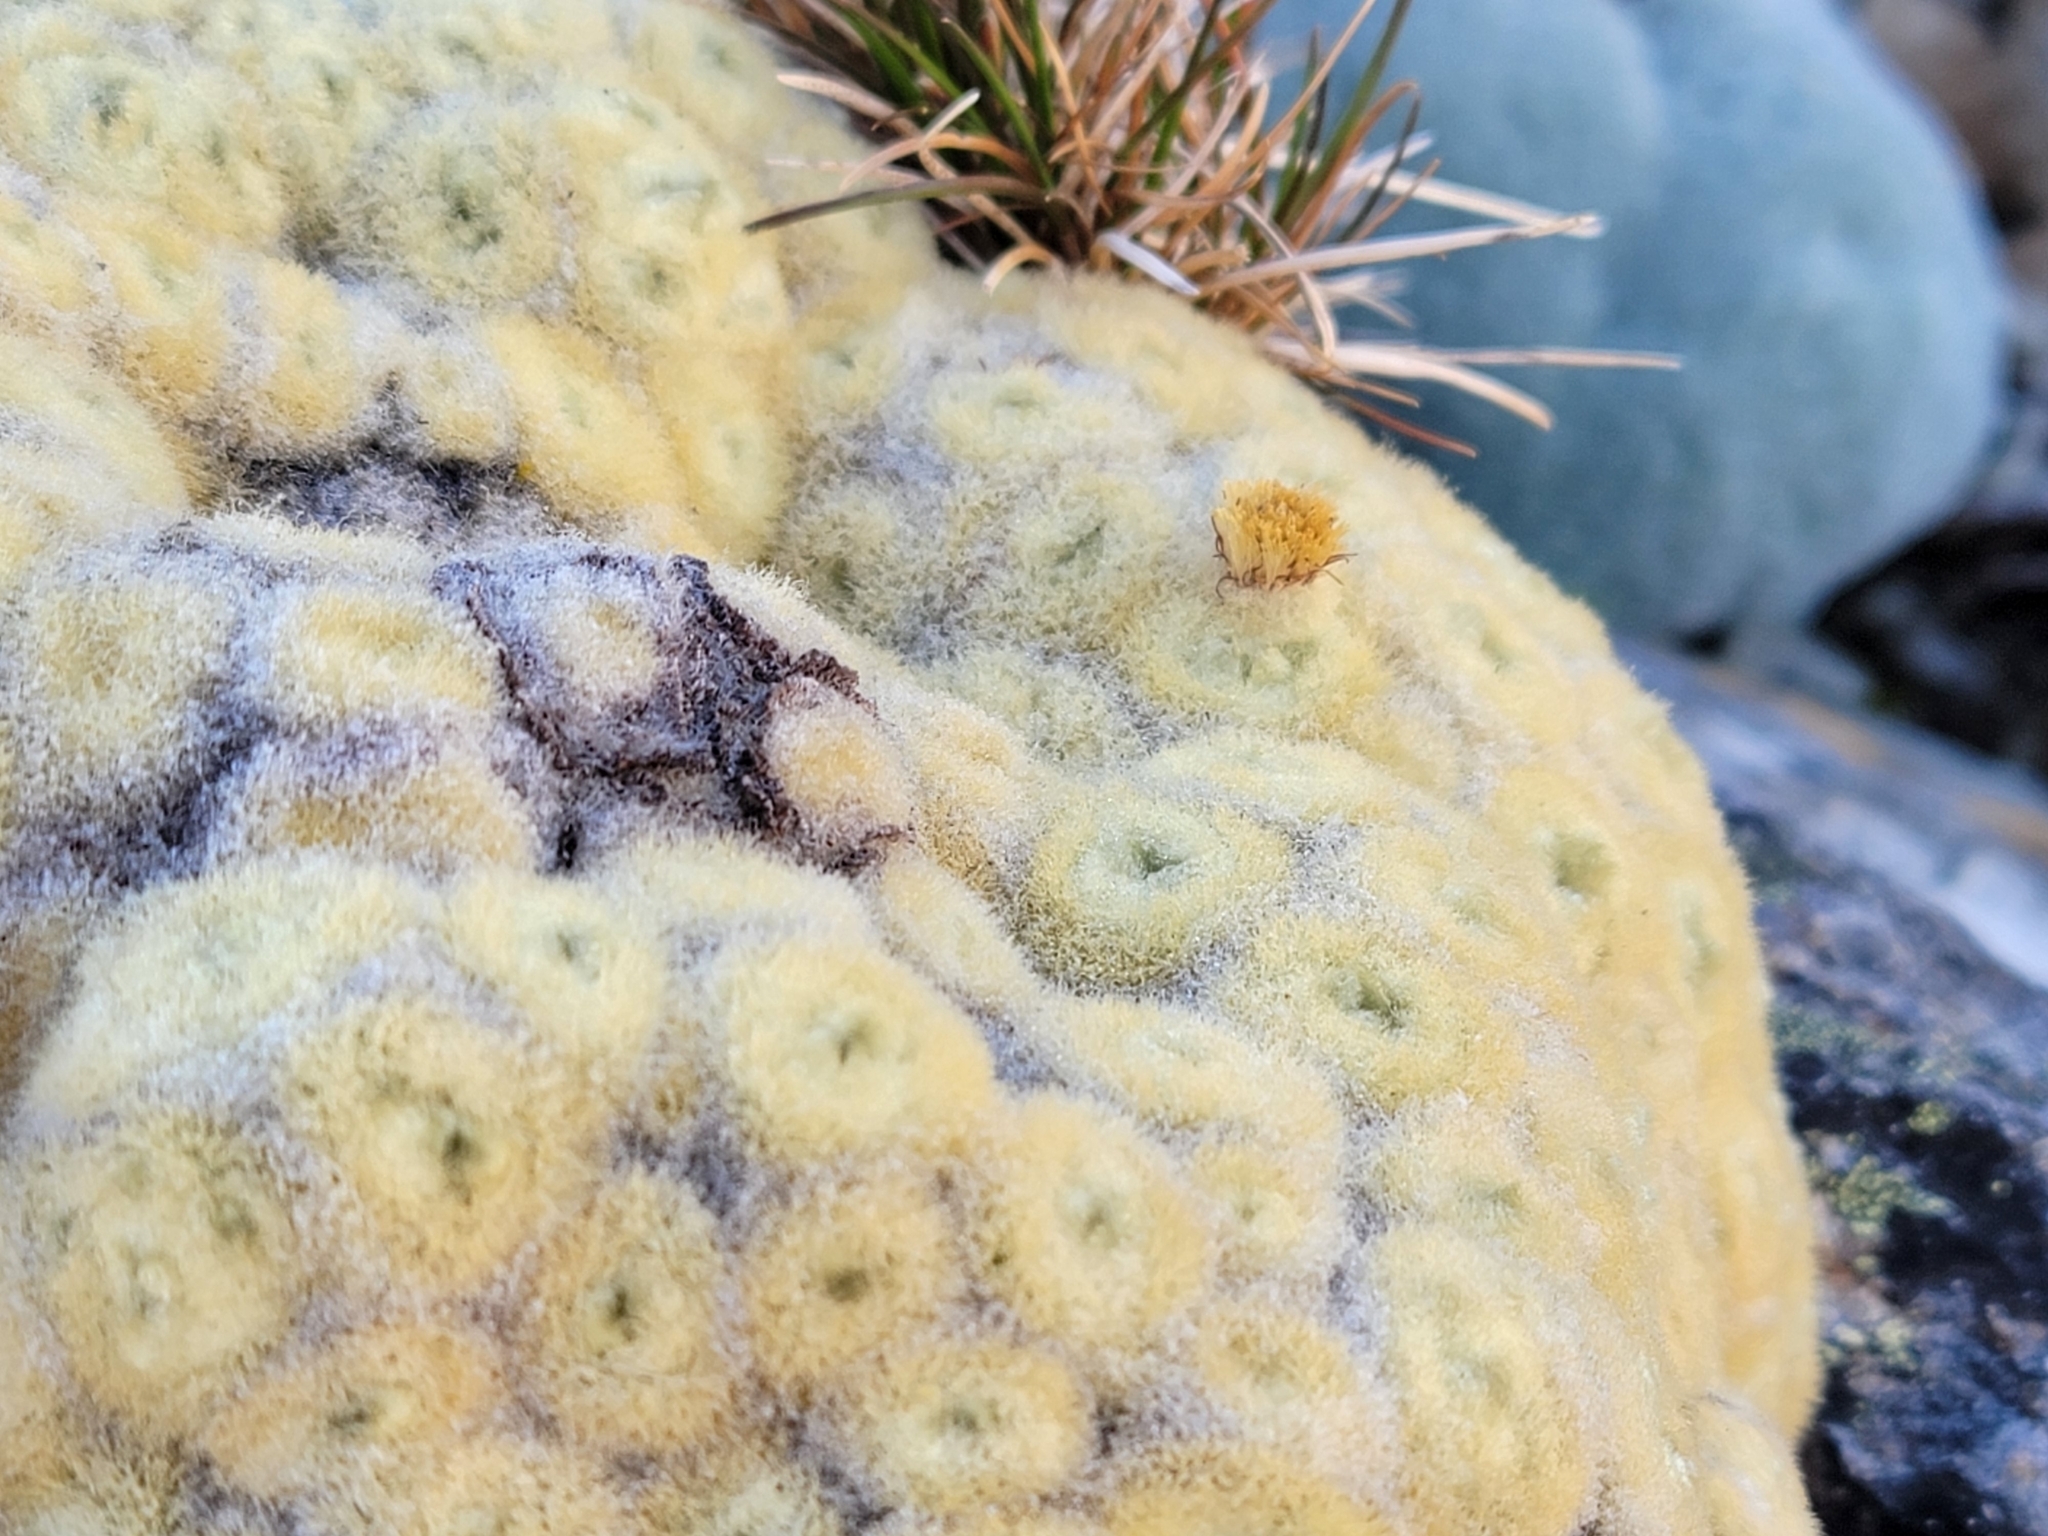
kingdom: Plantae
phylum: Tracheophyta
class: Magnoliopsida
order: Asterales
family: Asteraceae
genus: Haastia
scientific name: Haastia pulvinaris
